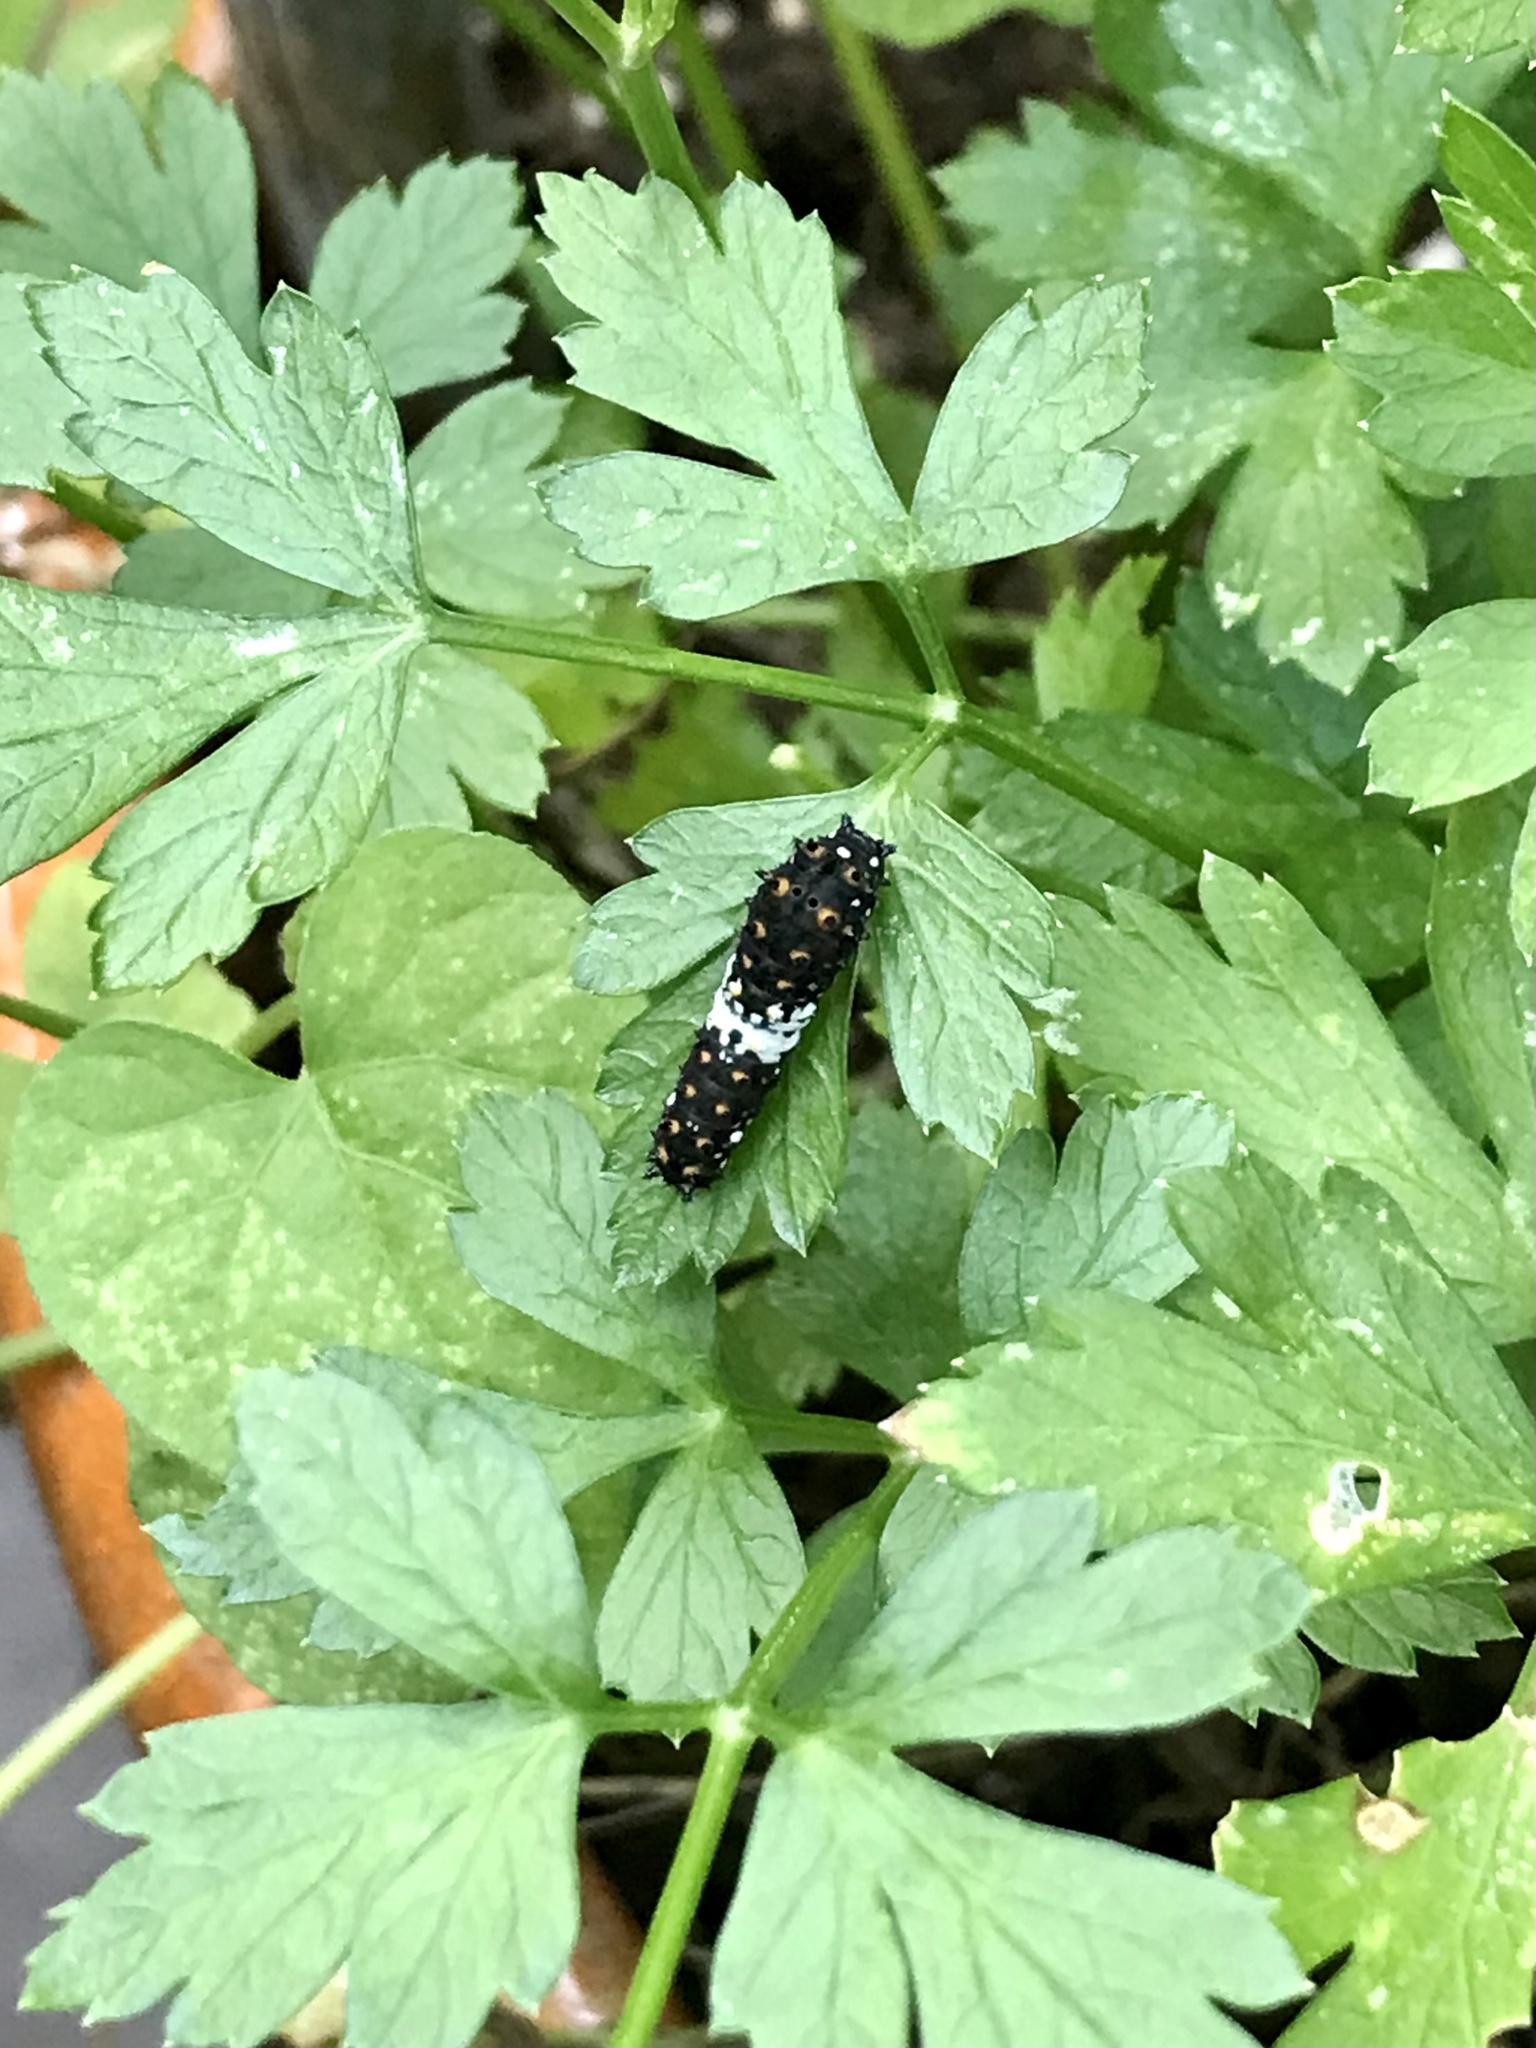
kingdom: Animalia
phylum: Arthropoda
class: Insecta
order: Lepidoptera
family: Papilionidae
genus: Papilio
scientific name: Papilio polyxenes
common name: Black swallowtail
